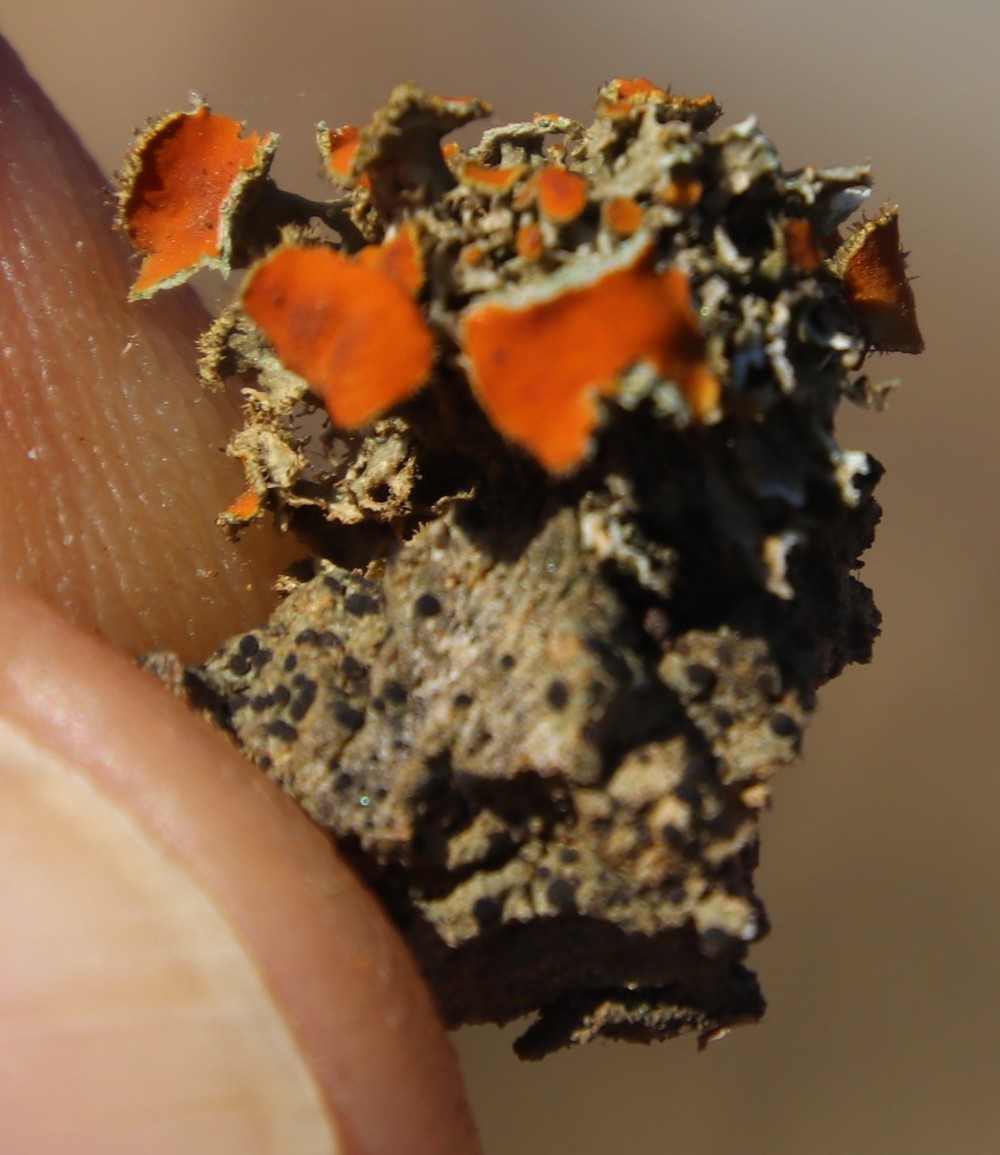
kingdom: Fungi
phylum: Ascomycota
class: Lecanoromycetes
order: Teloschistales
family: Teloschistaceae
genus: Niorma
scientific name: Niorma chrysophthalma
